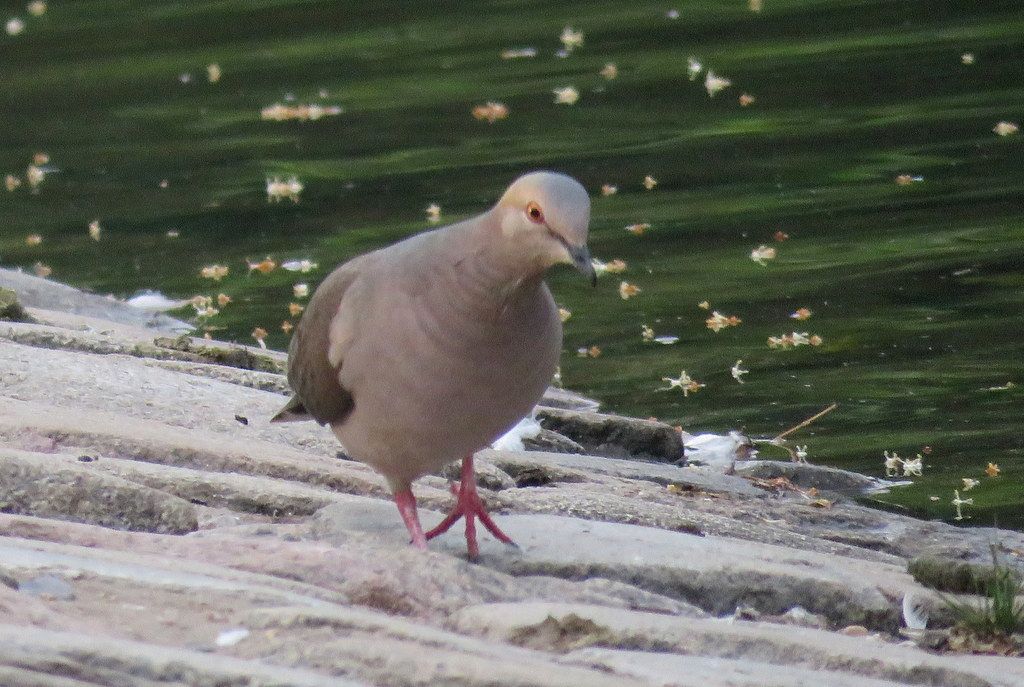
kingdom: Animalia
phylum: Chordata
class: Aves
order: Columbiformes
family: Columbidae
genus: Leptotila
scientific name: Leptotila verreauxi
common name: White-tipped dove
